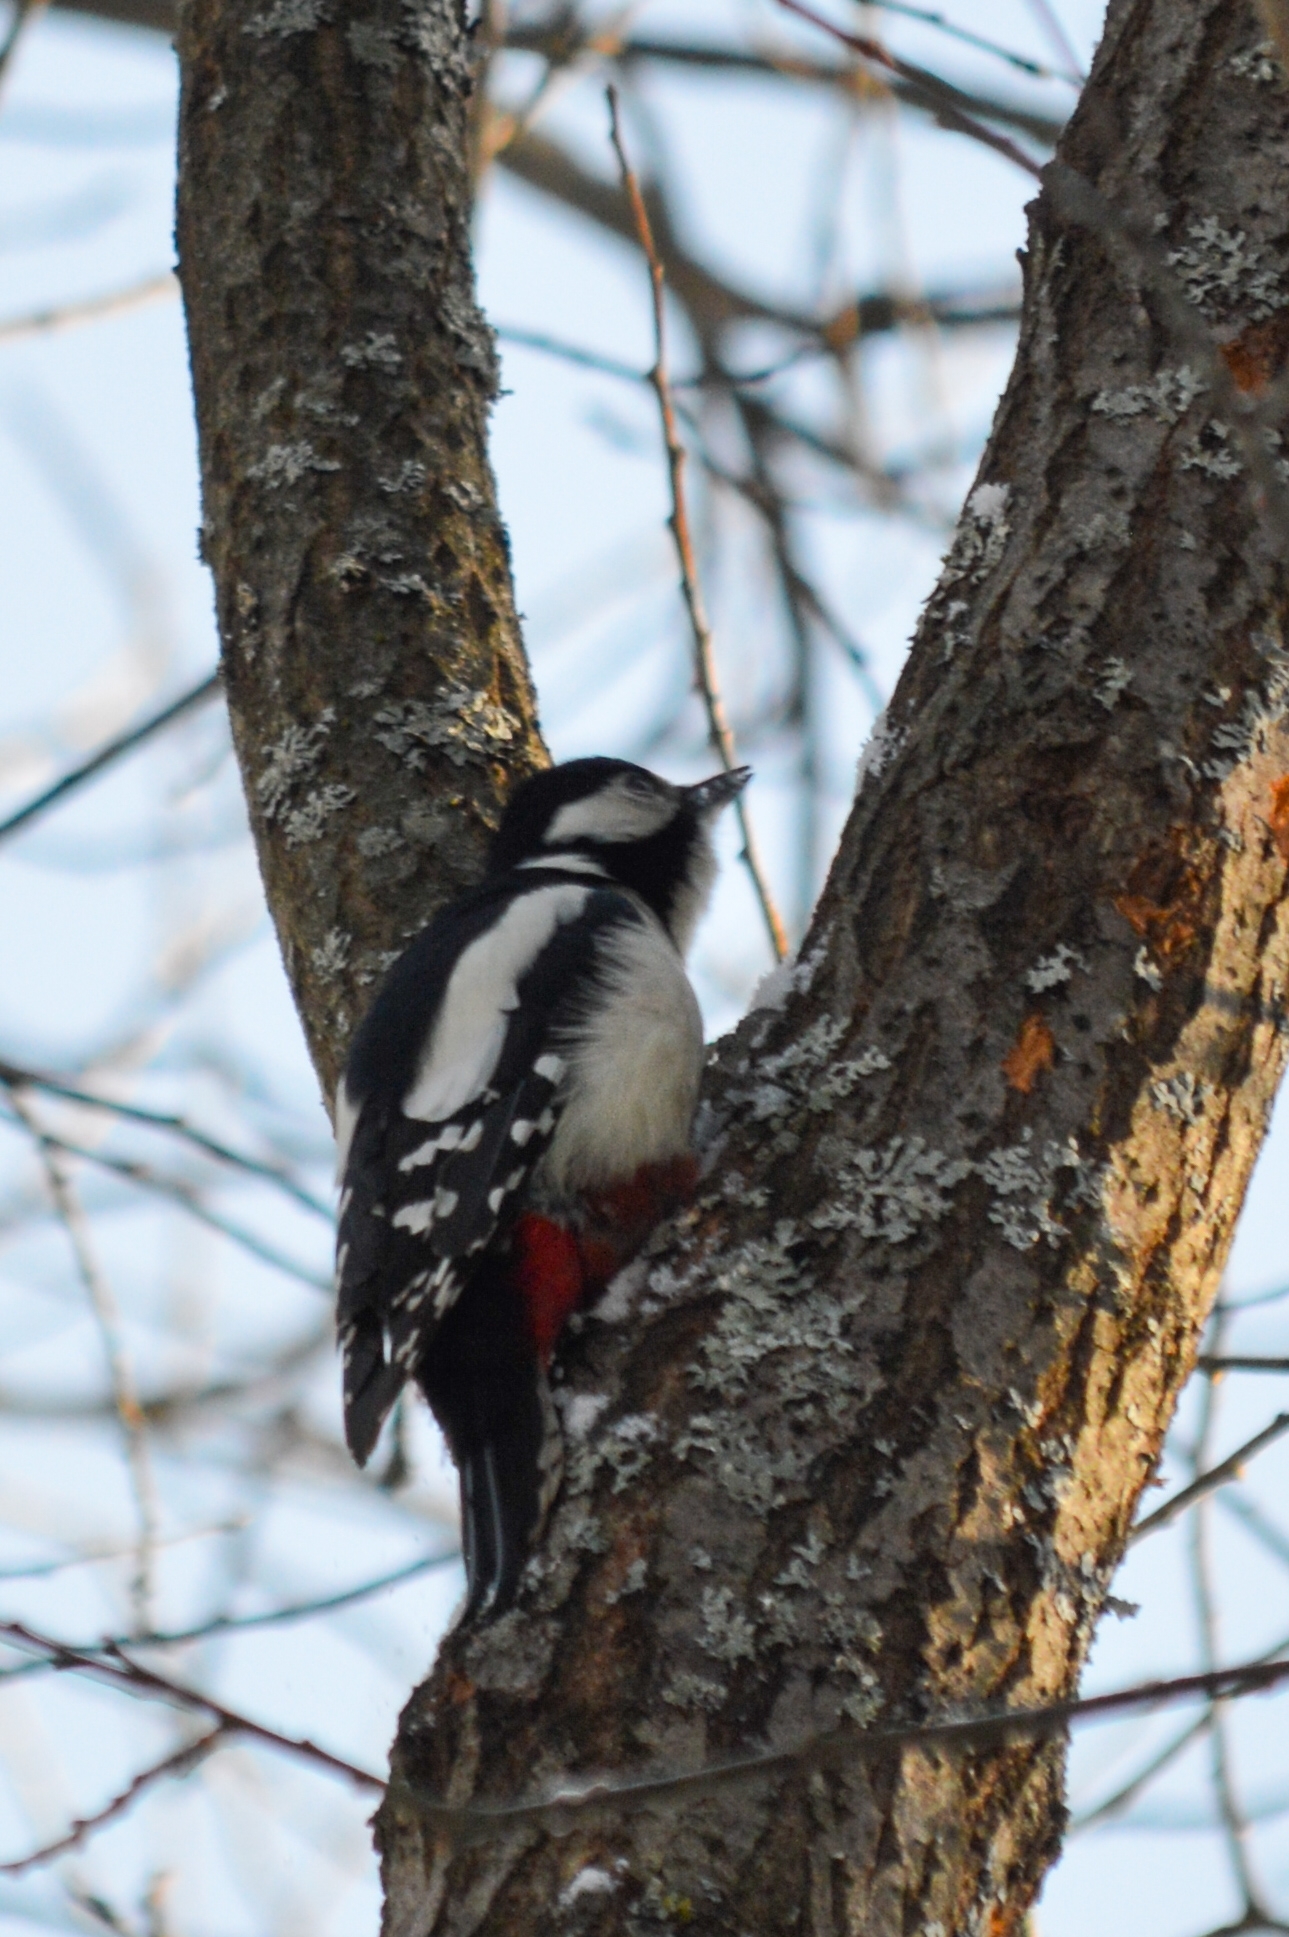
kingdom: Animalia
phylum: Chordata
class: Aves
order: Piciformes
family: Picidae
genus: Dendrocopos
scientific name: Dendrocopos major
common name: Great spotted woodpecker
